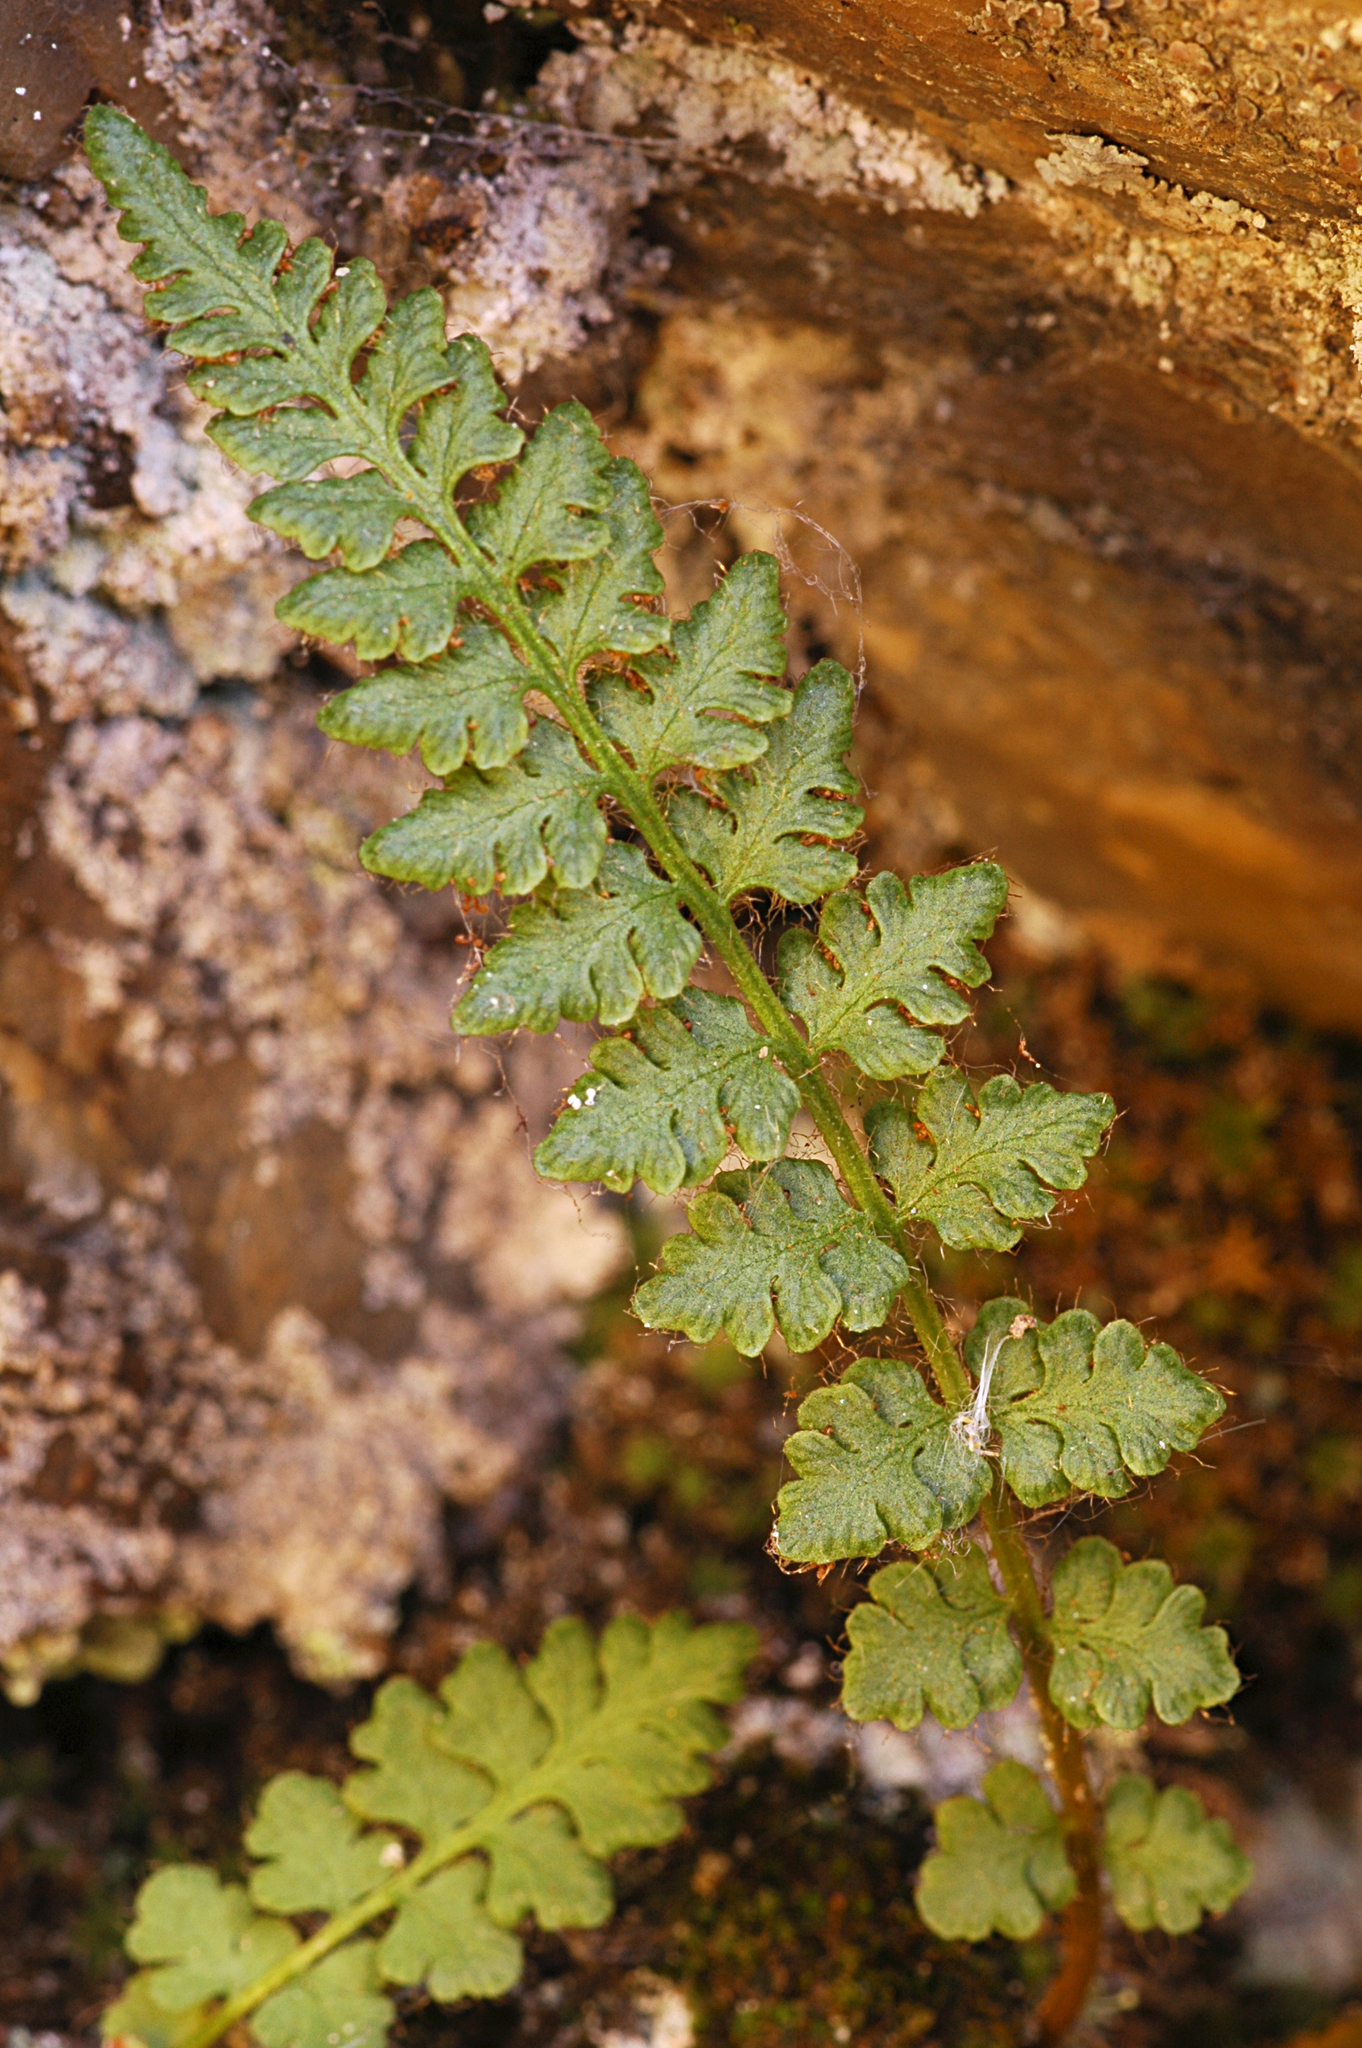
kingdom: Plantae
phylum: Tracheophyta
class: Polypodiopsida
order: Polypodiales
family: Woodsiaceae
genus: Woodsia
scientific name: Woodsia ilvensis
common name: Fragrant woodsia
